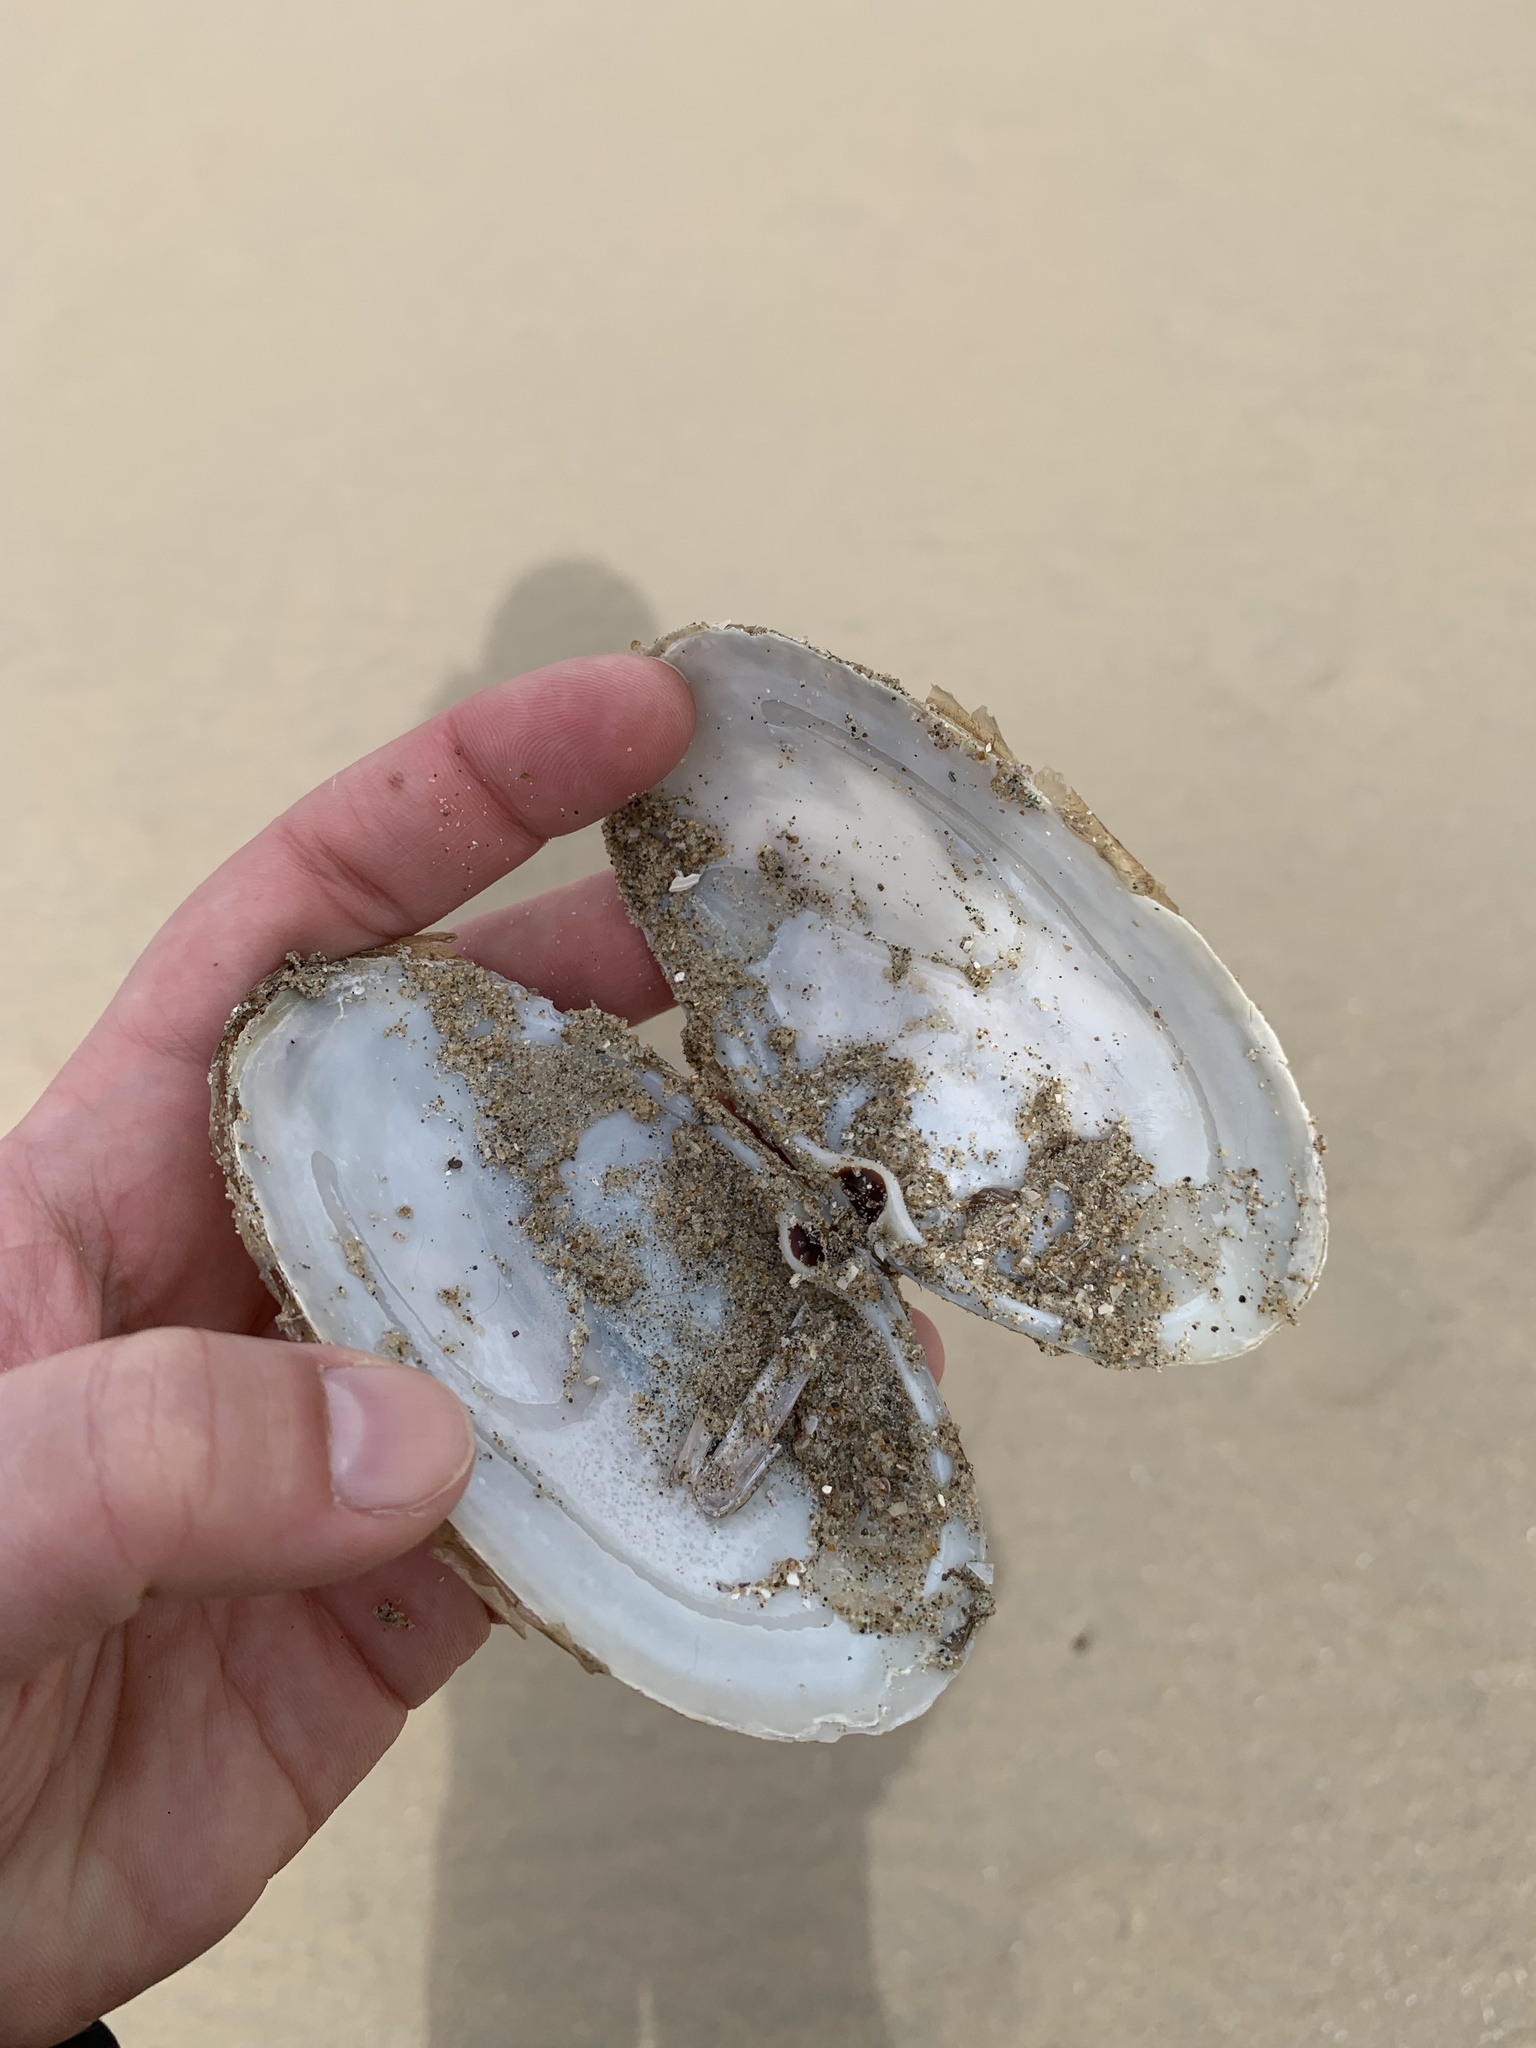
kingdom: Animalia
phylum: Mollusca
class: Bivalvia
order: Venerida
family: Mactridae
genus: Lutraria
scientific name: Lutraria lutraria
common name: Common otter shell
